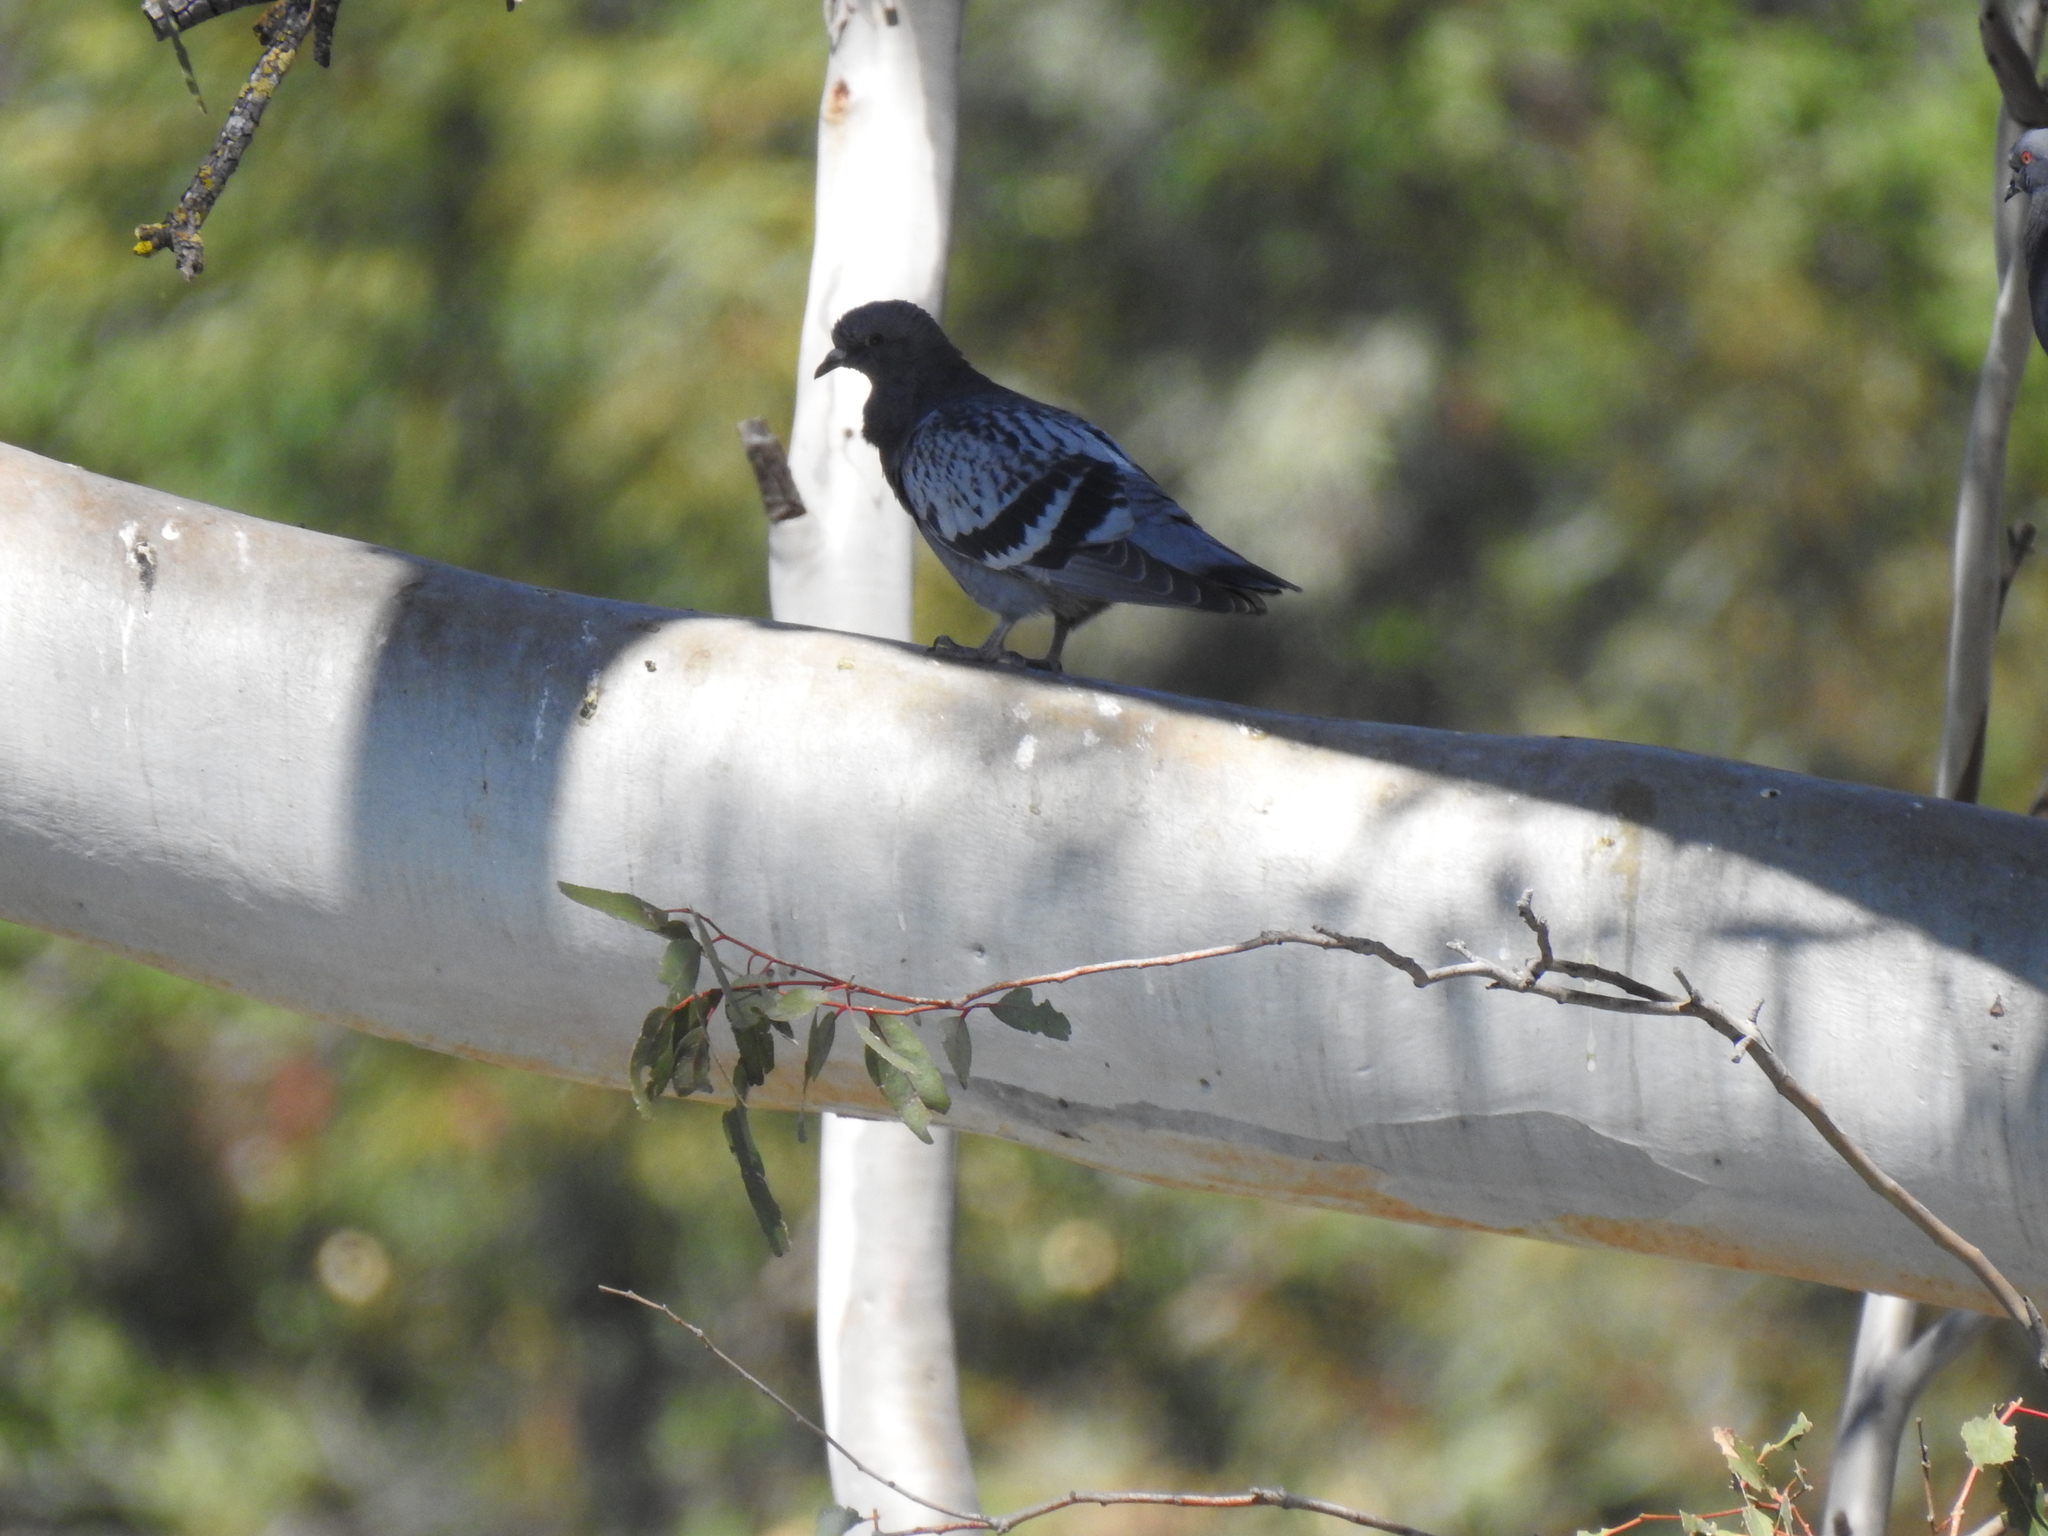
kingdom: Animalia
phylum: Chordata
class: Aves
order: Columbiformes
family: Columbidae
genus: Columba
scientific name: Columba livia
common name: Rock pigeon
